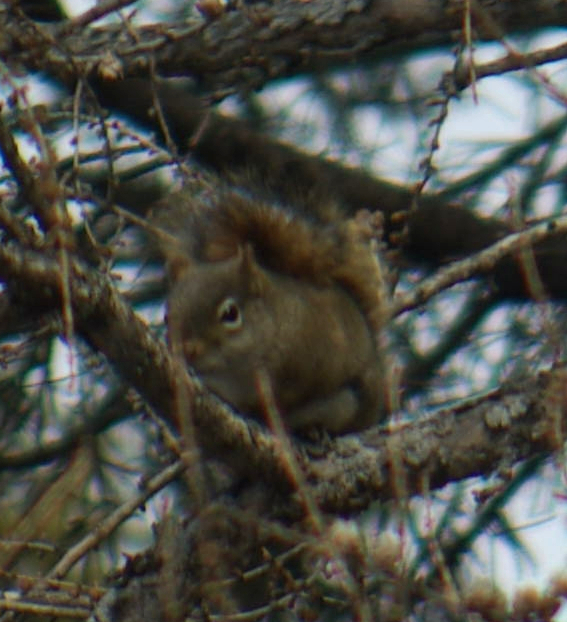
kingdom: Animalia
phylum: Chordata
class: Mammalia
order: Rodentia
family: Sciuridae
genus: Tamiasciurus
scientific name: Tamiasciurus hudsonicus
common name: Red squirrel
